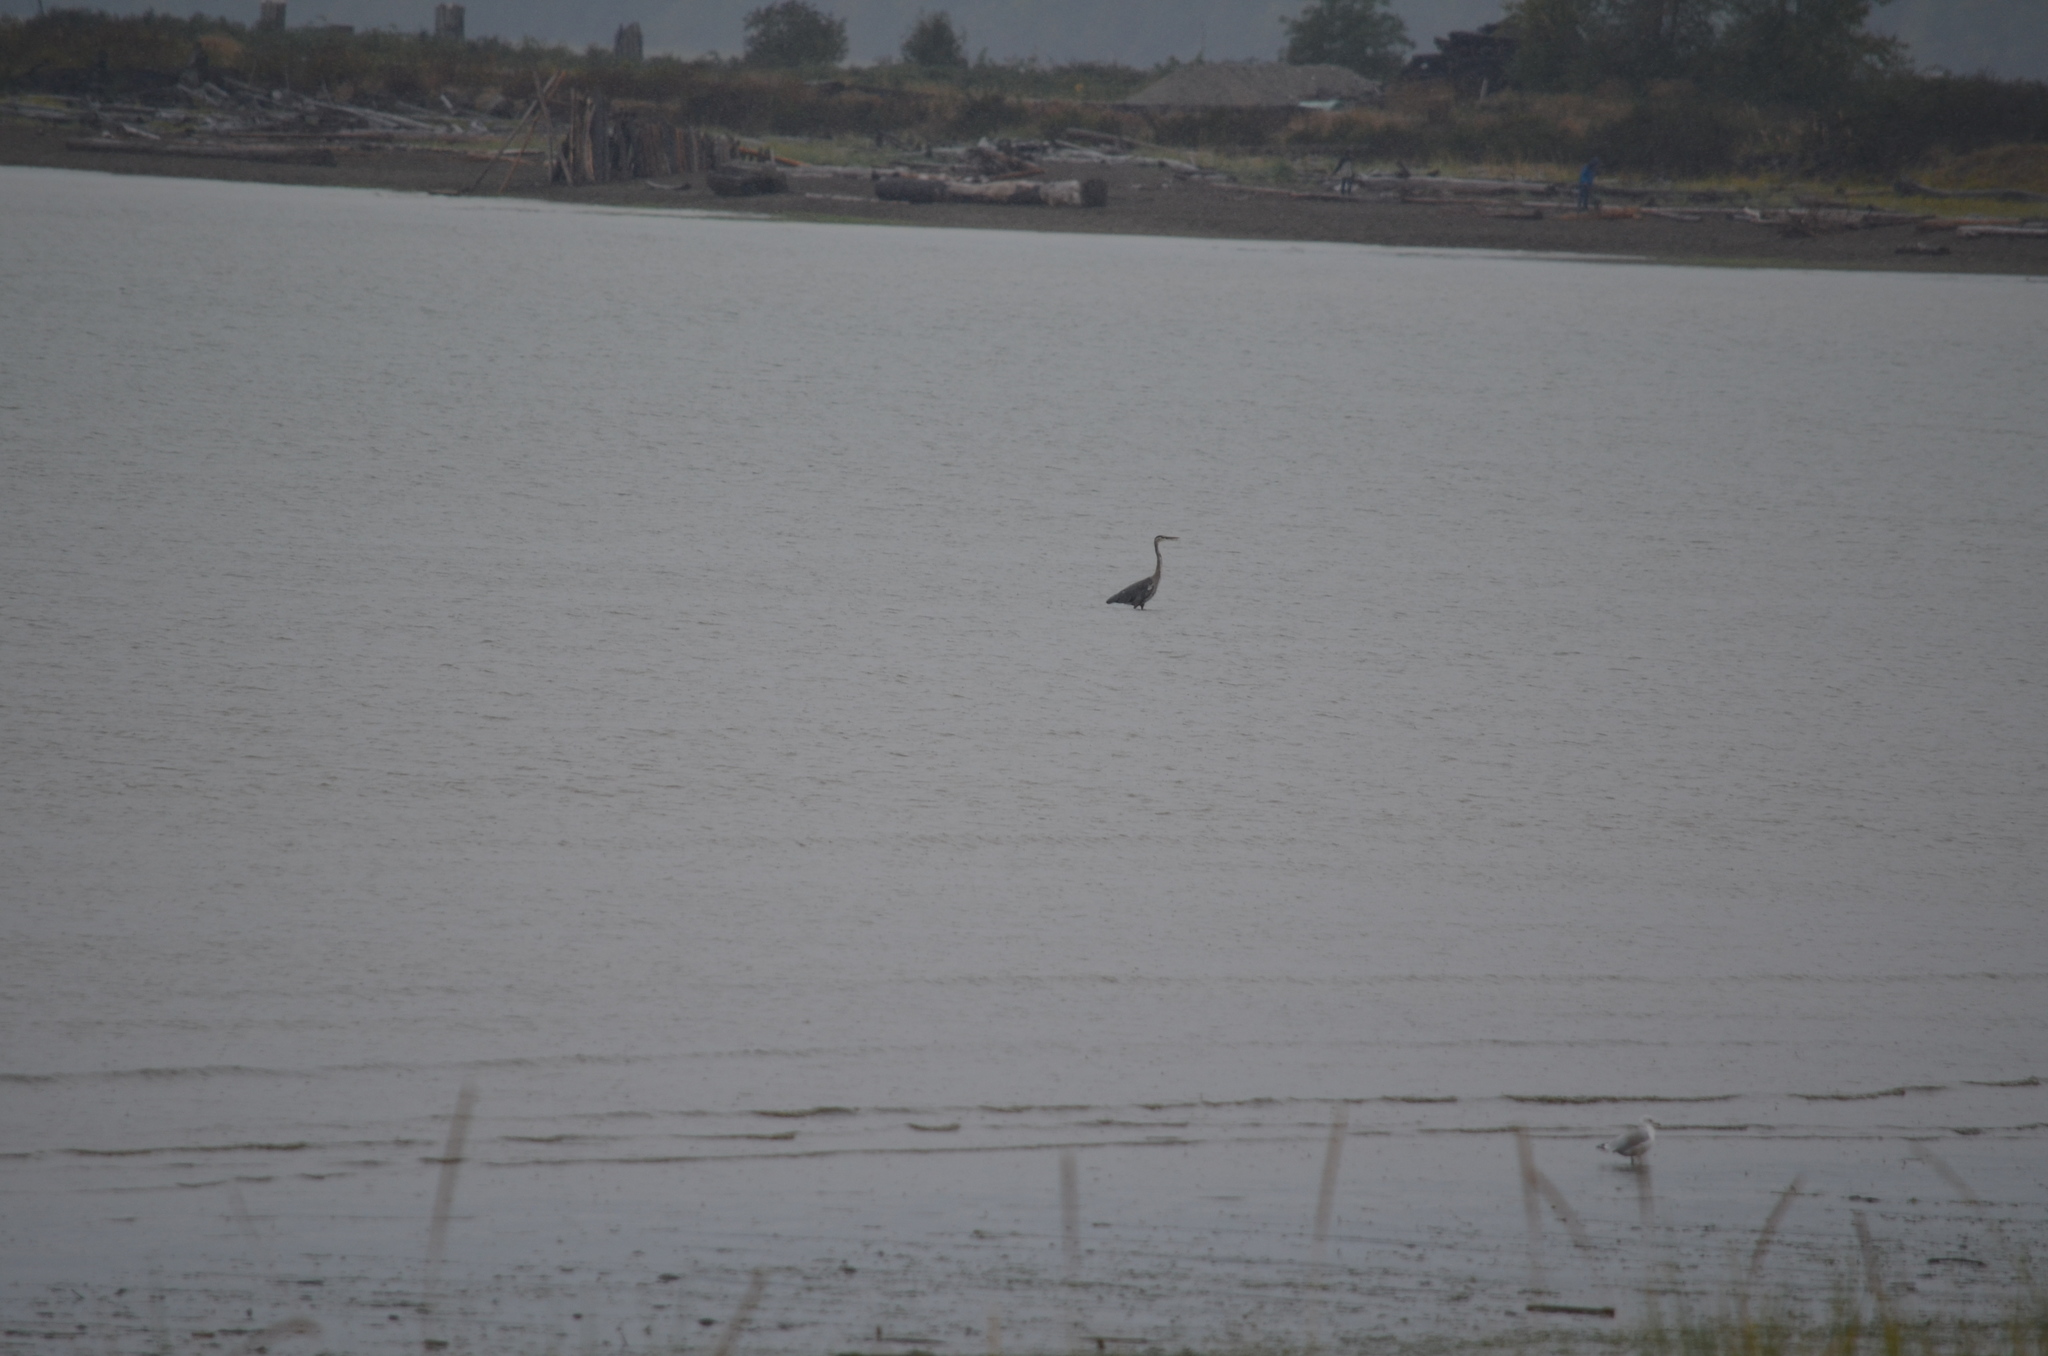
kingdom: Animalia
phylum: Chordata
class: Aves
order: Pelecaniformes
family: Ardeidae
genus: Ardea
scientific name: Ardea herodias
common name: Great blue heron
